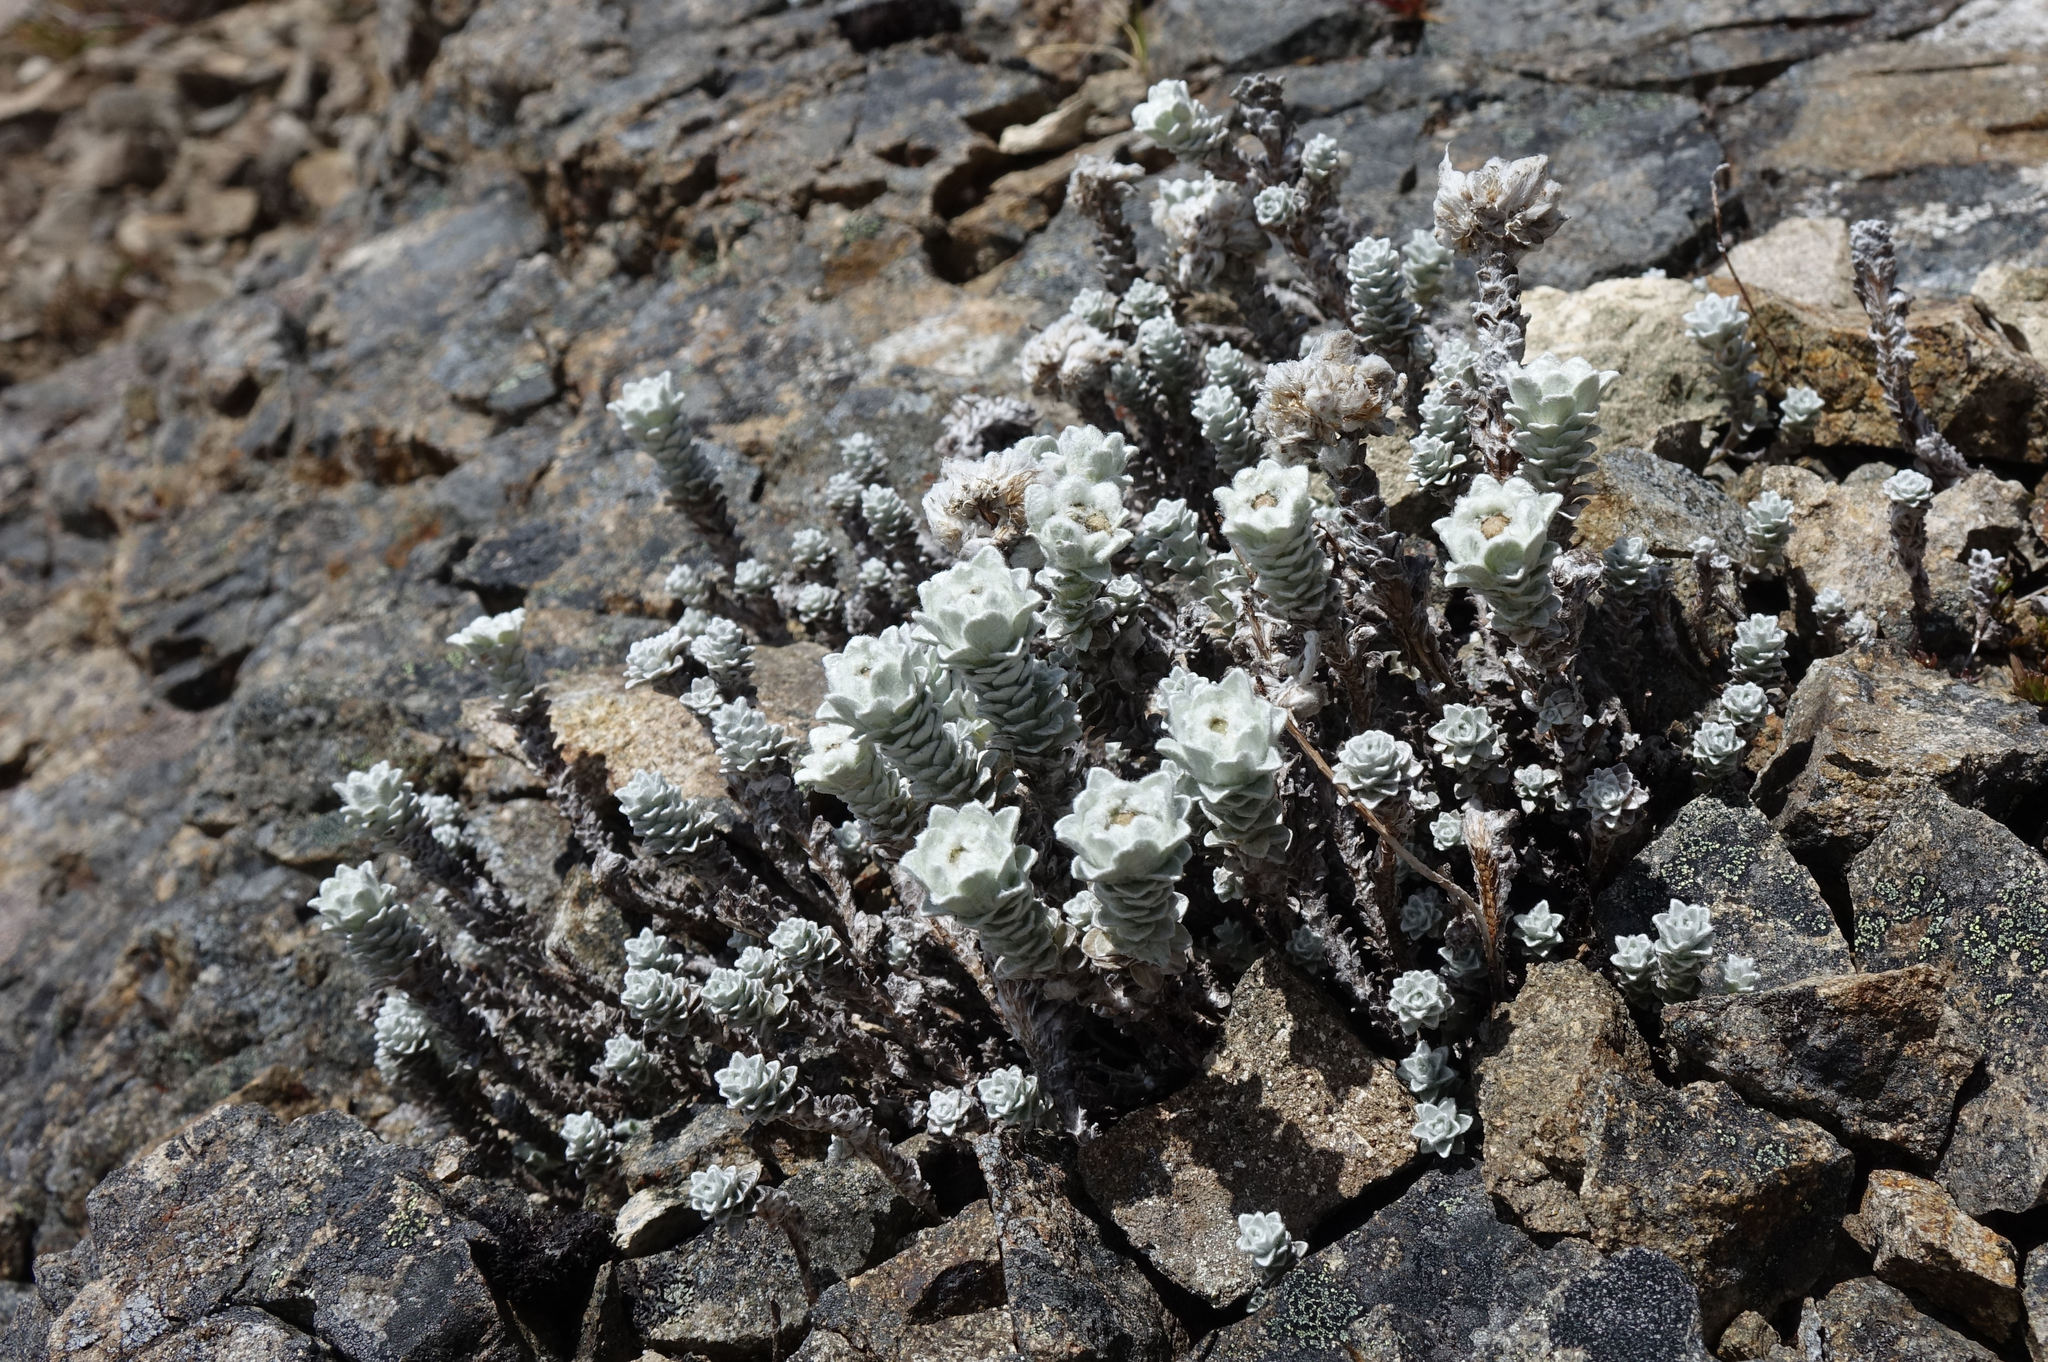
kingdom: Plantae
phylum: Tracheophyta
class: Magnoliopsida
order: Asterales
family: Asteraceae
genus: Leucogenes
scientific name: Leucogenes grandiceps
